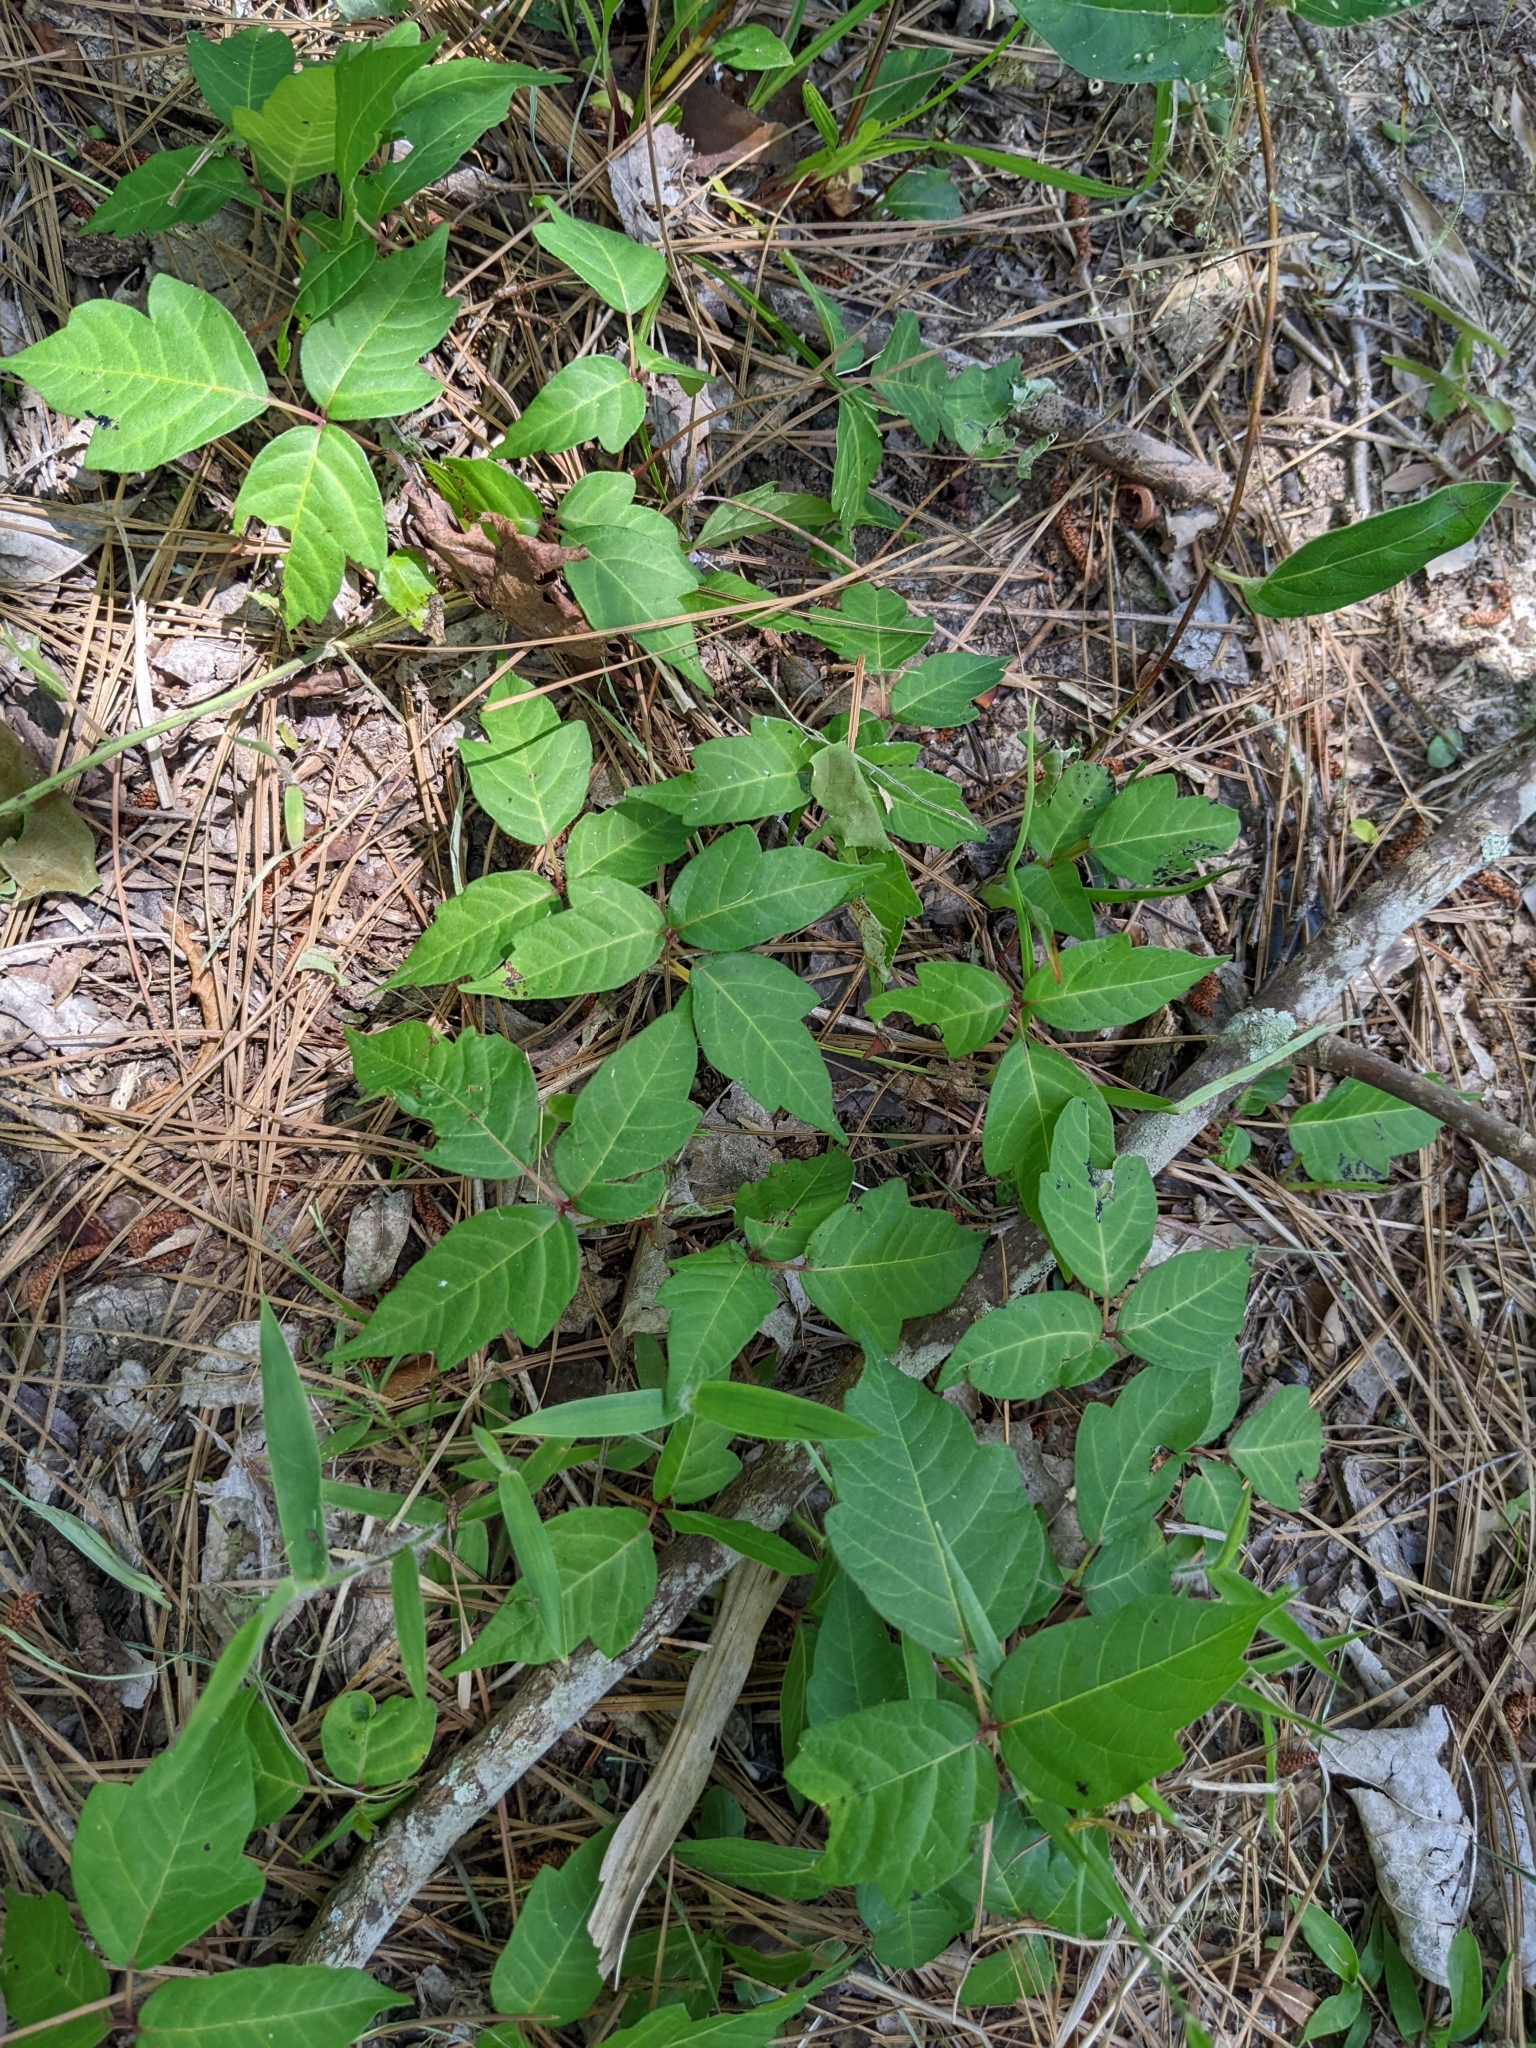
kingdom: Plantae
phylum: Tracheophyta
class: Magnoliopsida
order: Sapindales
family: Anacardiaceae
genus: Toxicodendron
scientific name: Toxicodendron radicans
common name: Poison ivy
